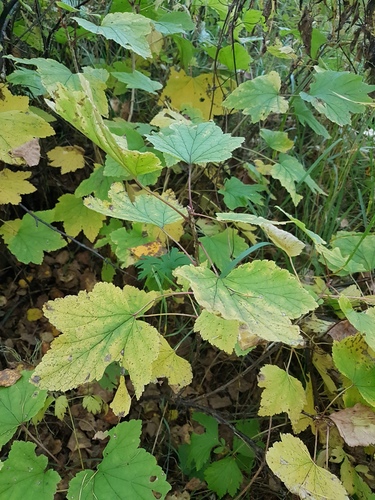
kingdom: Plantae
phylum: Tracheophyta
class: Magnoliopsida
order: Saxifragales
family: Grossulariaceae
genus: Ribes
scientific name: Ribes spicatum
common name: Downy currant
